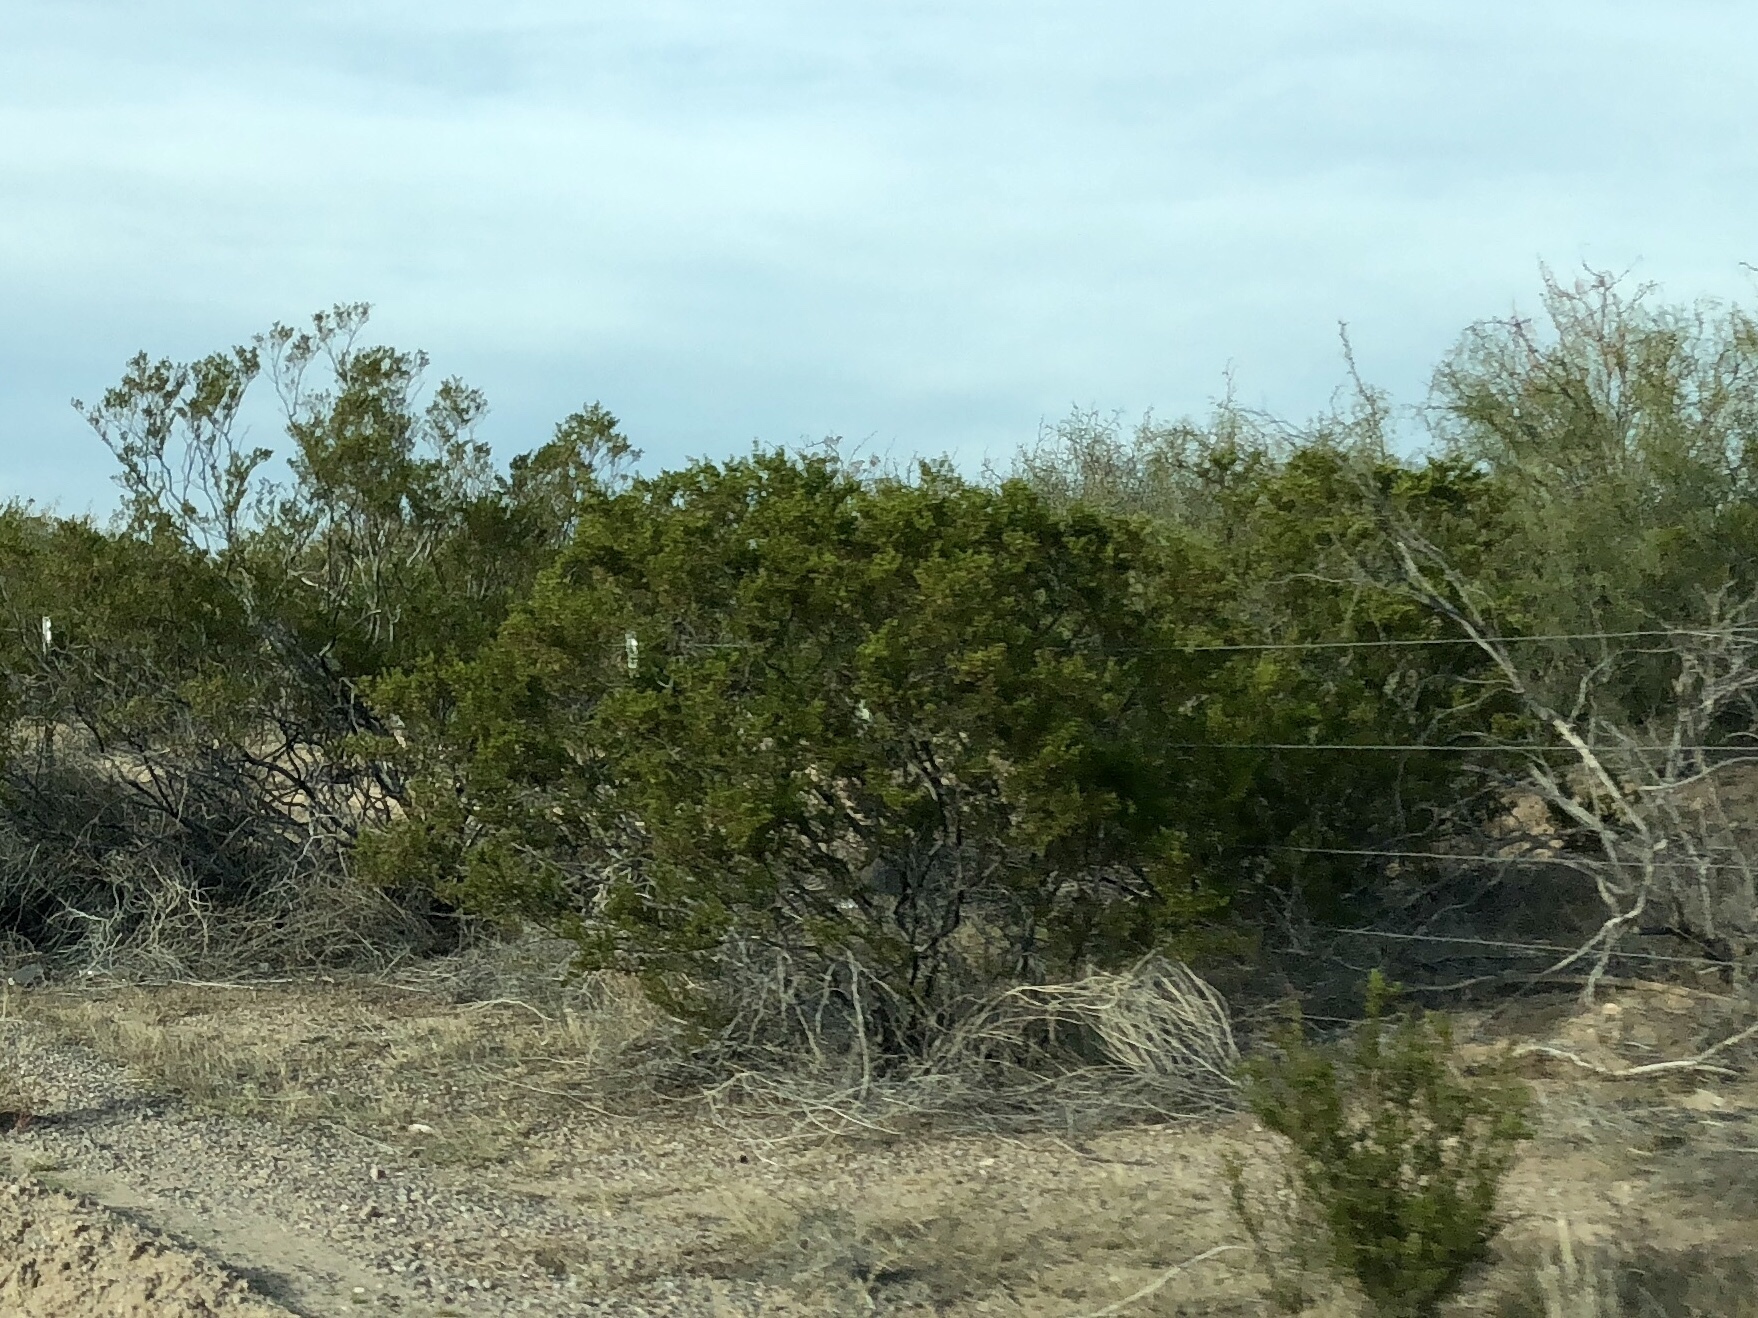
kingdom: Plantae
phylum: Tracheophyta
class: Magnoliopsida
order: Zygophyllales
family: Zygophyllaceae
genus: Larrea
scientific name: Larrea tridentata
